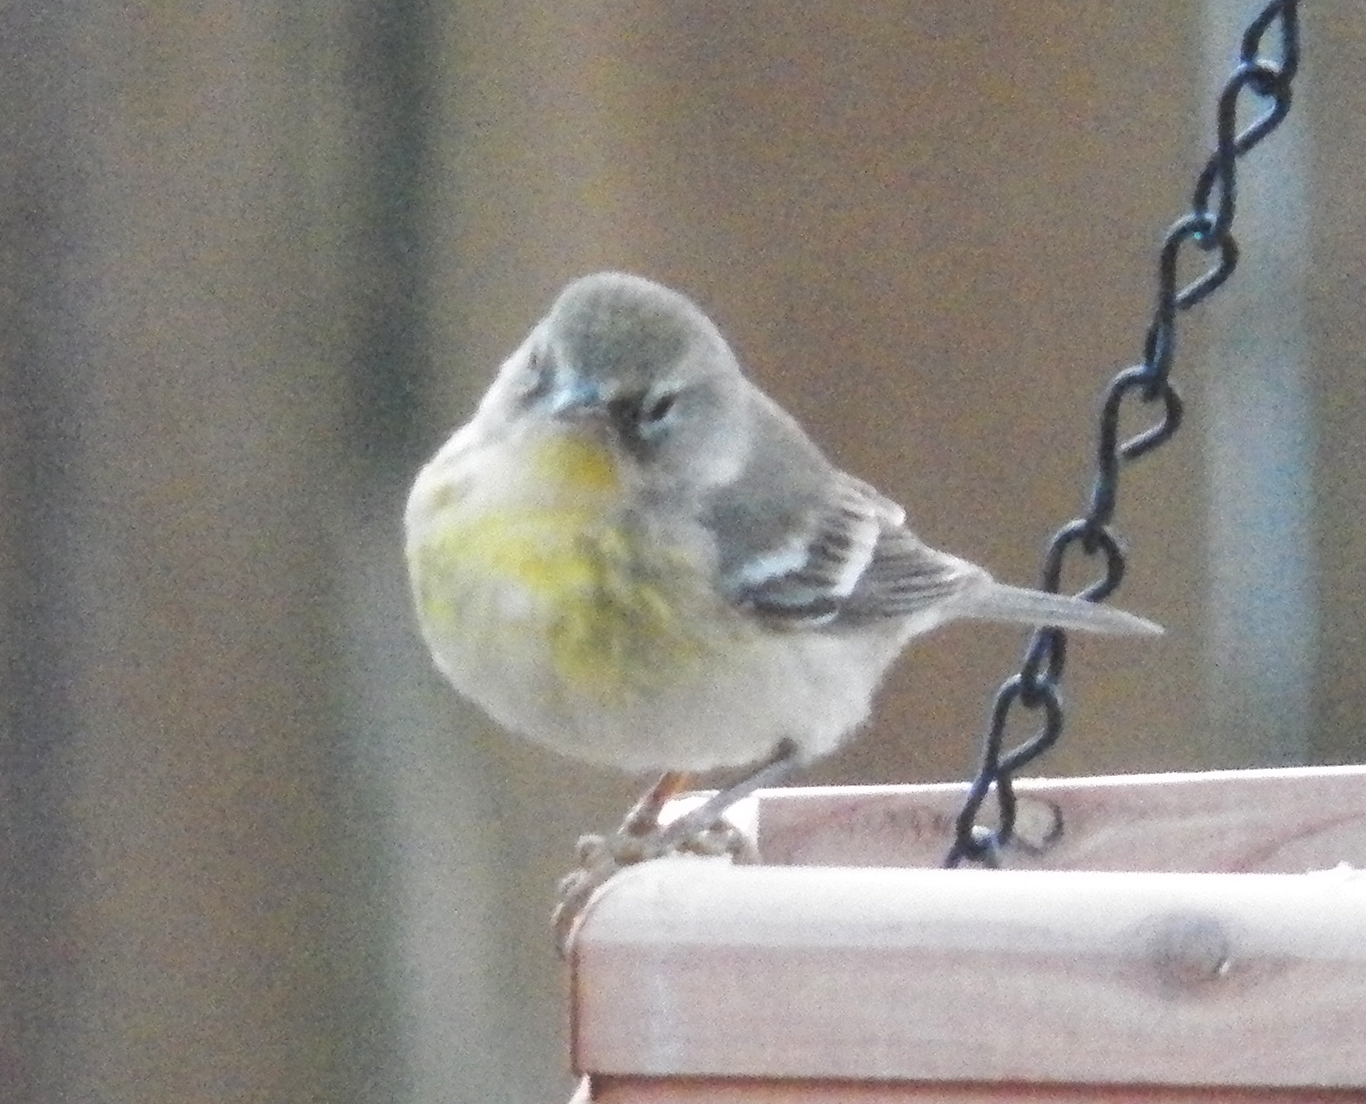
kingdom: Animalia
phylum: Chordata
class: Aves
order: Passeriformes
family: Parulidae
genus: Setophaga
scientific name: Setophaga pinus
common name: Pine warbler
